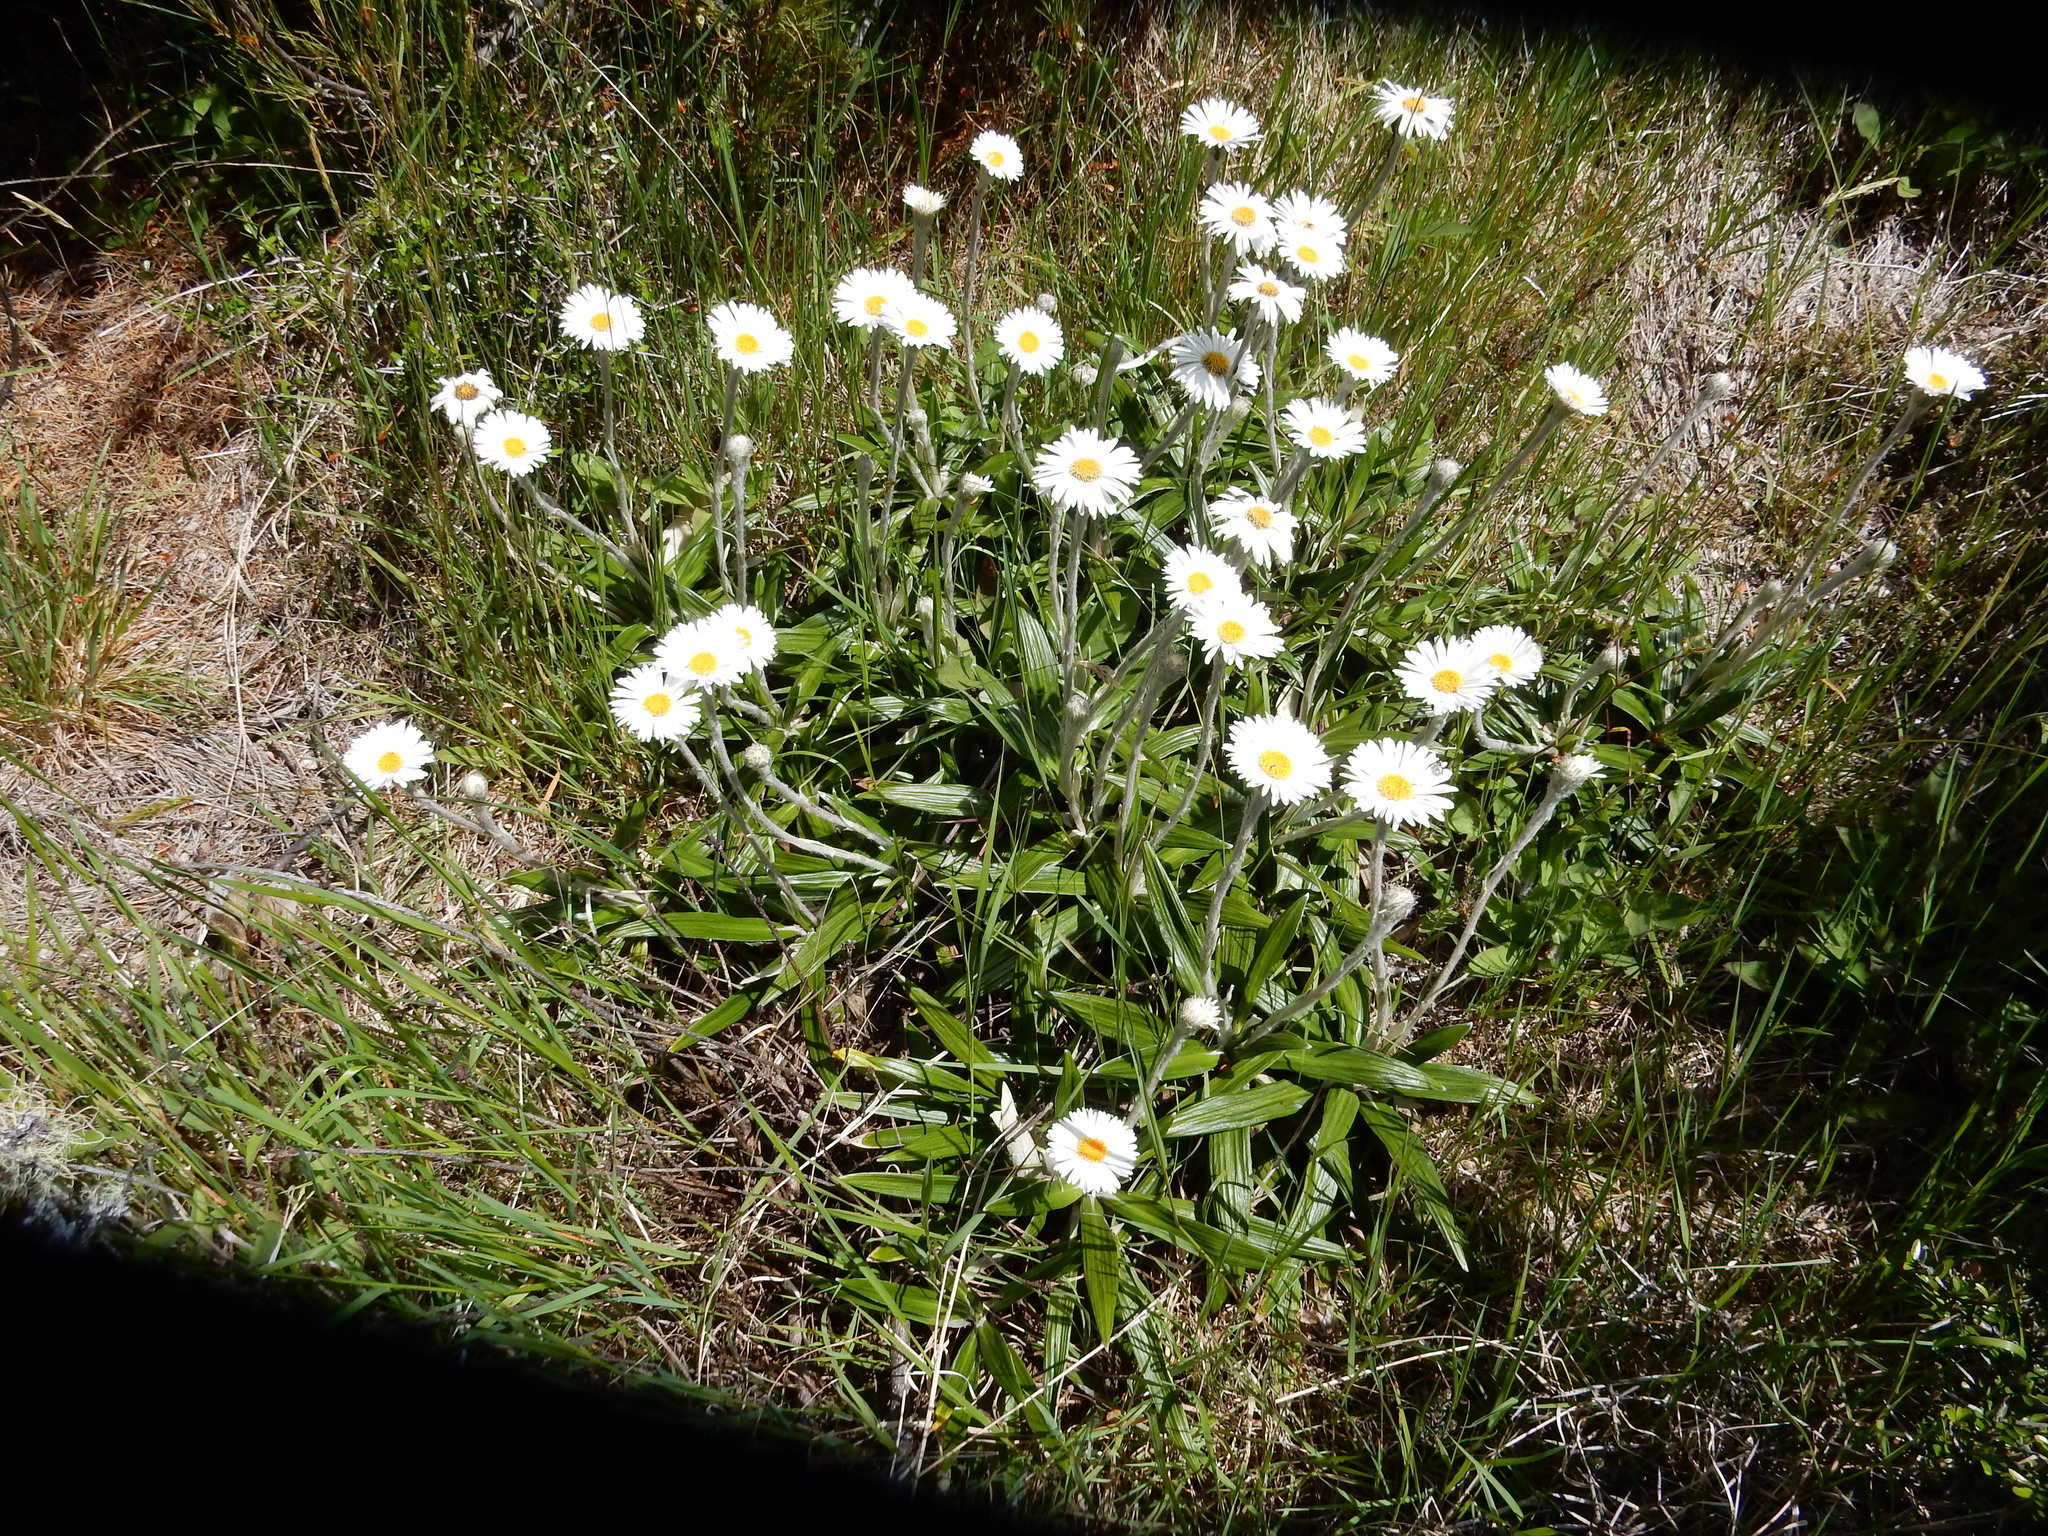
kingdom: Plantae
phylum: Tracheophyta
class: Magnoliopsida
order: Asterales
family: Asteraceae
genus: Celmisia
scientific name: Celmisia spectabilis
